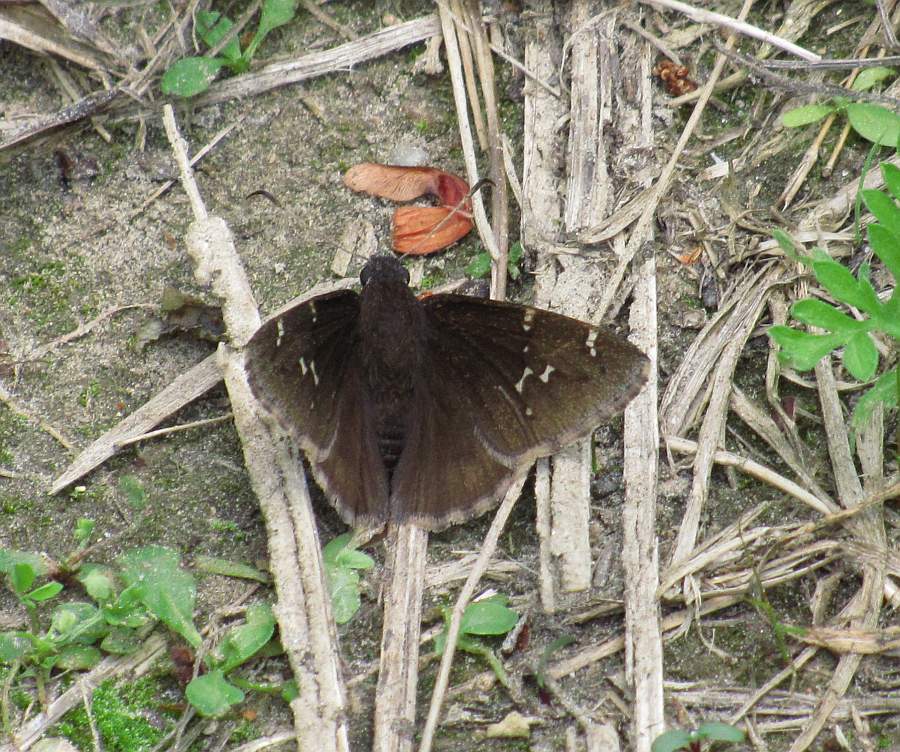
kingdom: Animalia
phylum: Arthropoda
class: Insecta
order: Lepidoptera
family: Hesperiidae
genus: Thorybes
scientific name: Thorybes pylades
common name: Northern cloudywing
